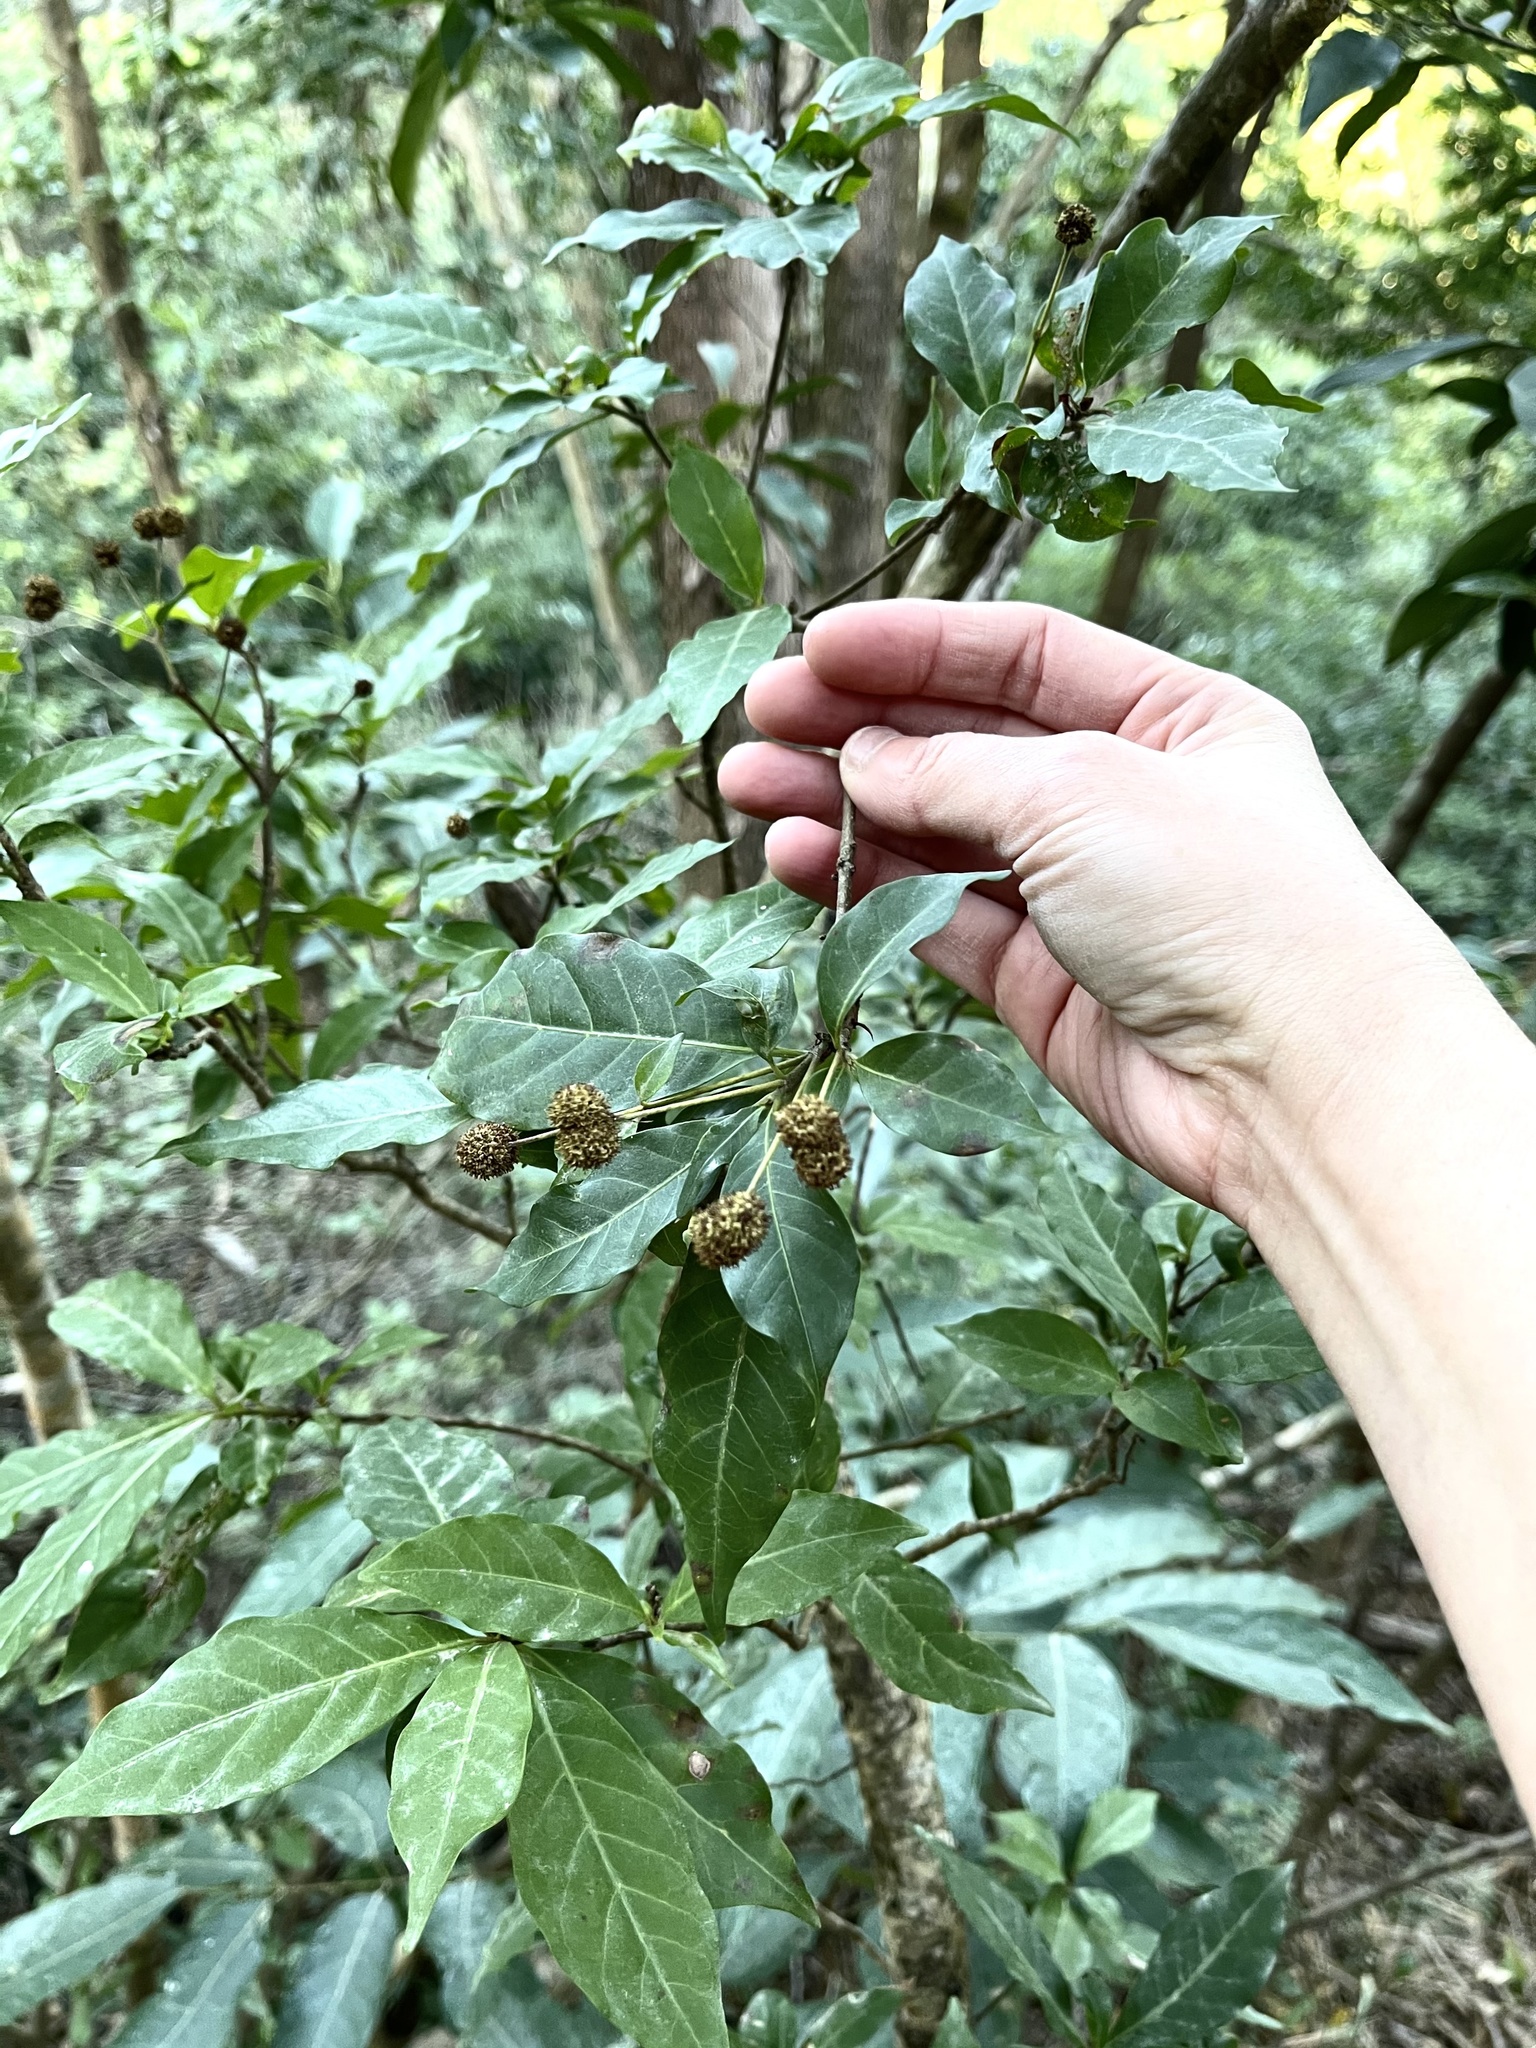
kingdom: Plantae
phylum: Tracheophyta
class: Magnoliopsida
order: Gentianales
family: Rubiaceae
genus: Adina
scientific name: Adina pilulifera
